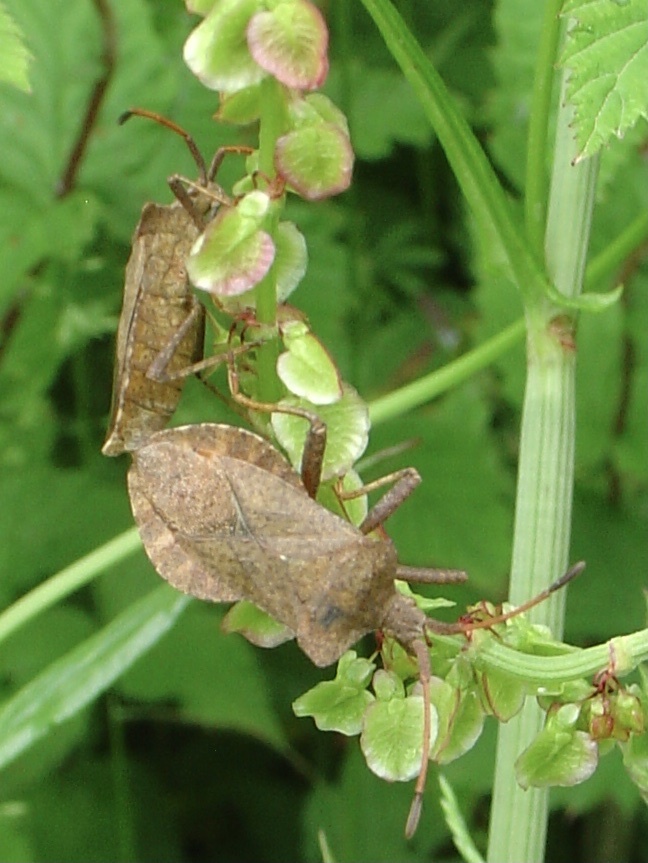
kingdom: Animalia
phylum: Arthropoda
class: Insecta
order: Hemiptera
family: Coreidae
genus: Coreus
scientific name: Coreus marginatus
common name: Dock bug
